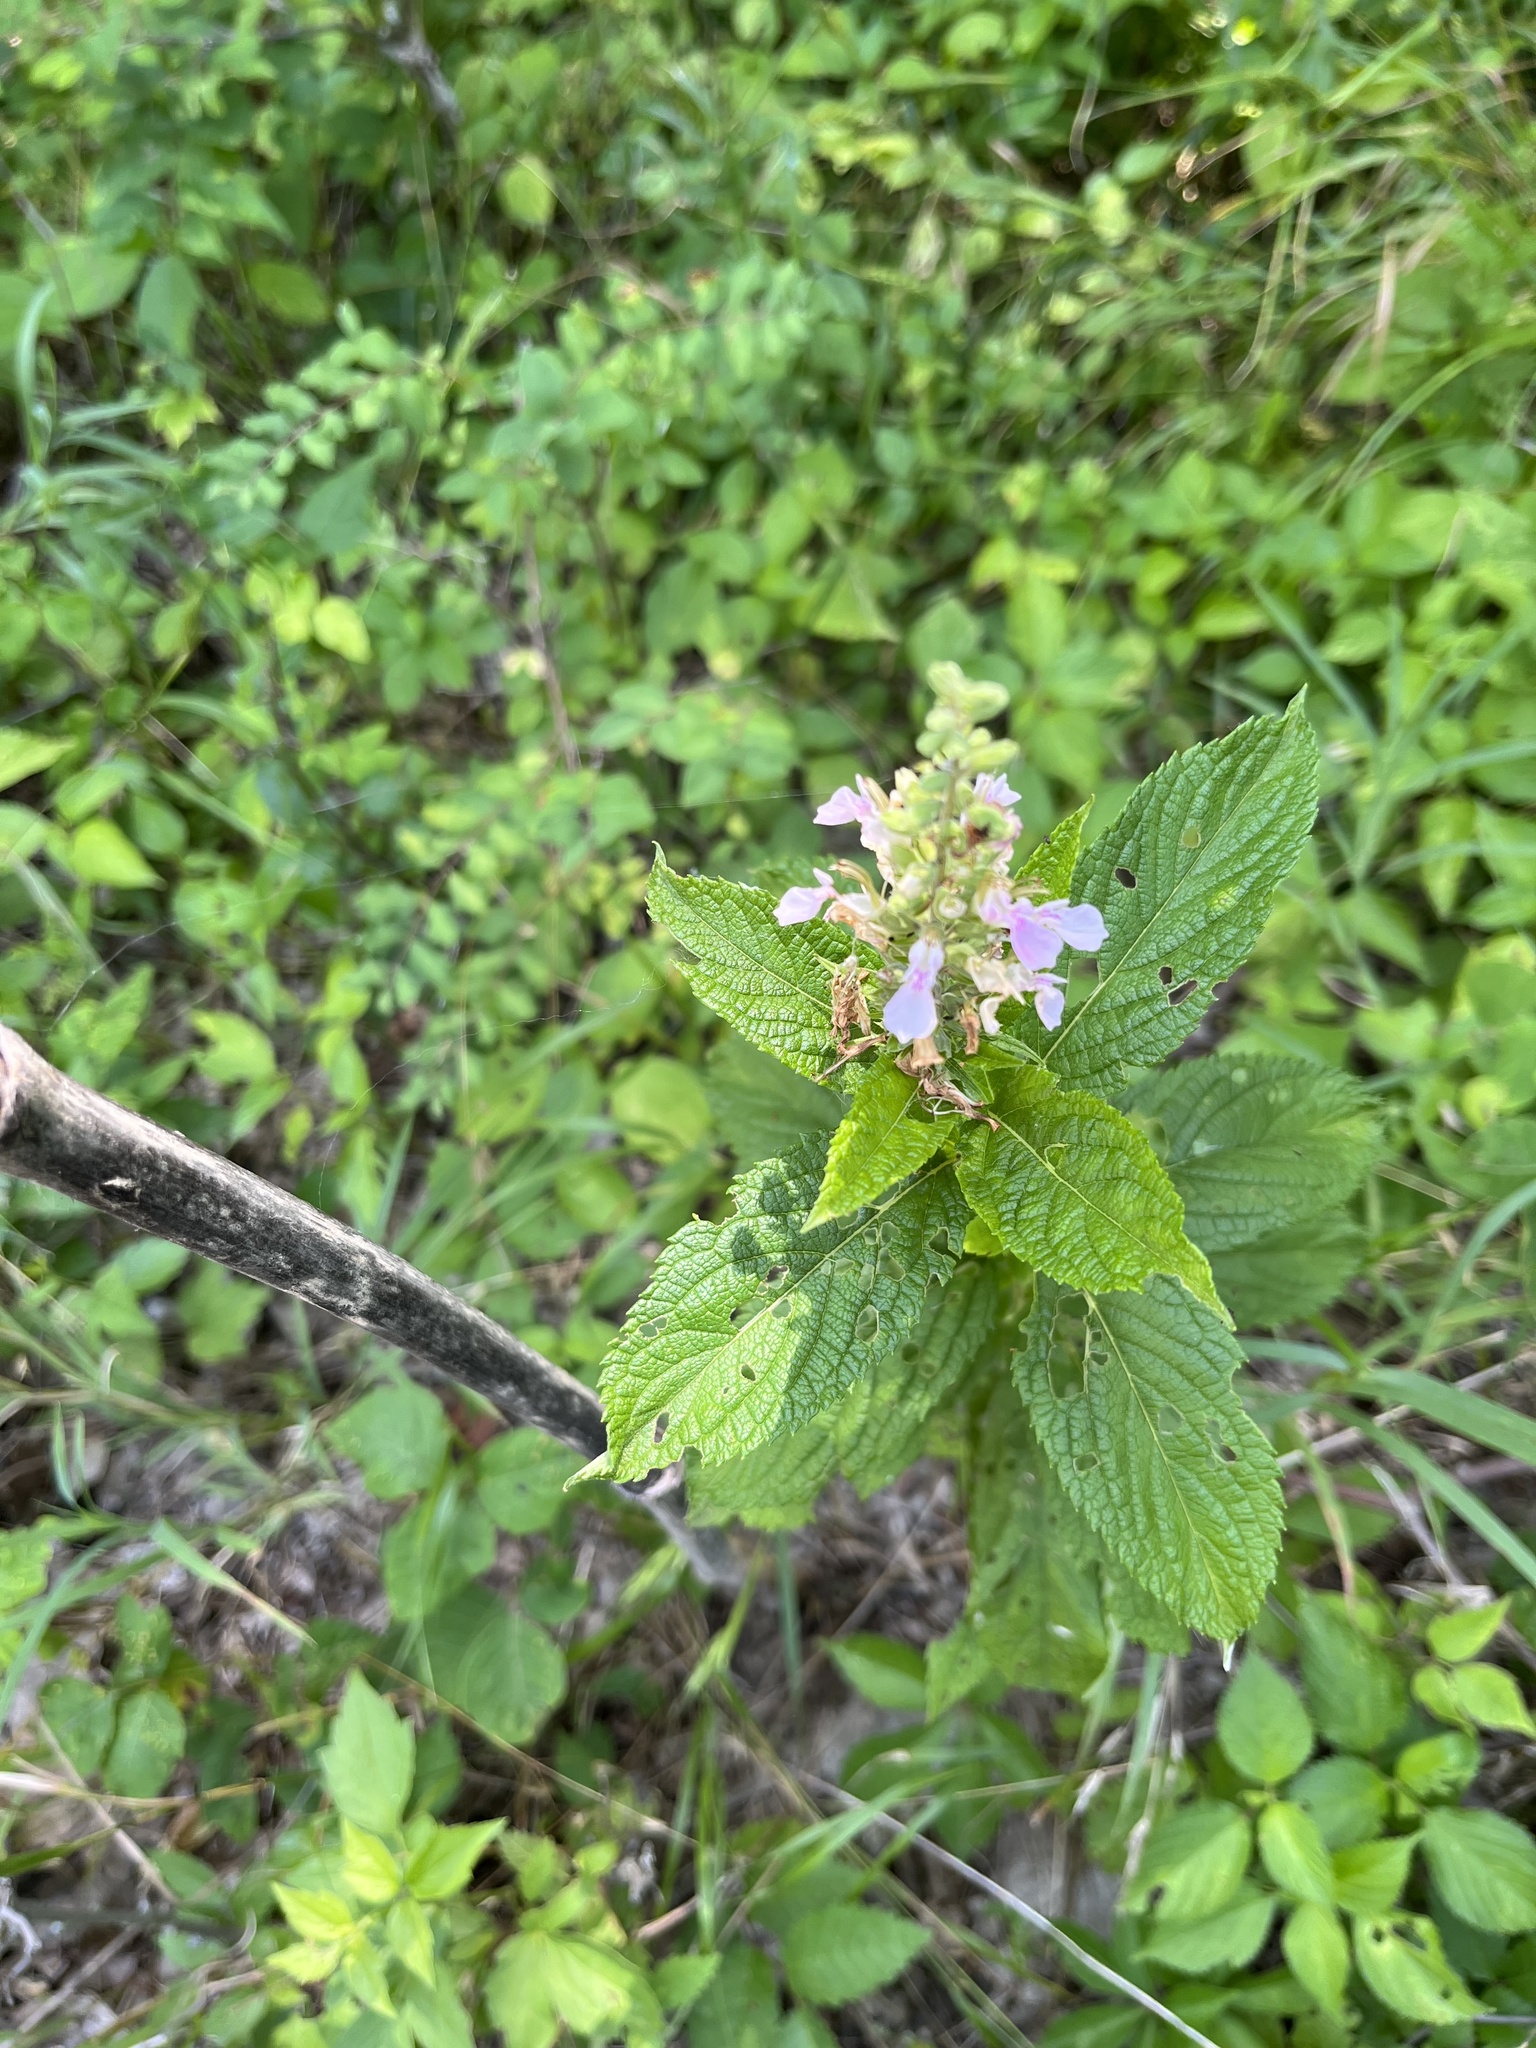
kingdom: Plantae
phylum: Tracheophyta
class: Magnoliopsida
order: Lamiales
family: Lamiaceae
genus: Teucrium
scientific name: Teucrium canadense
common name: American germander
